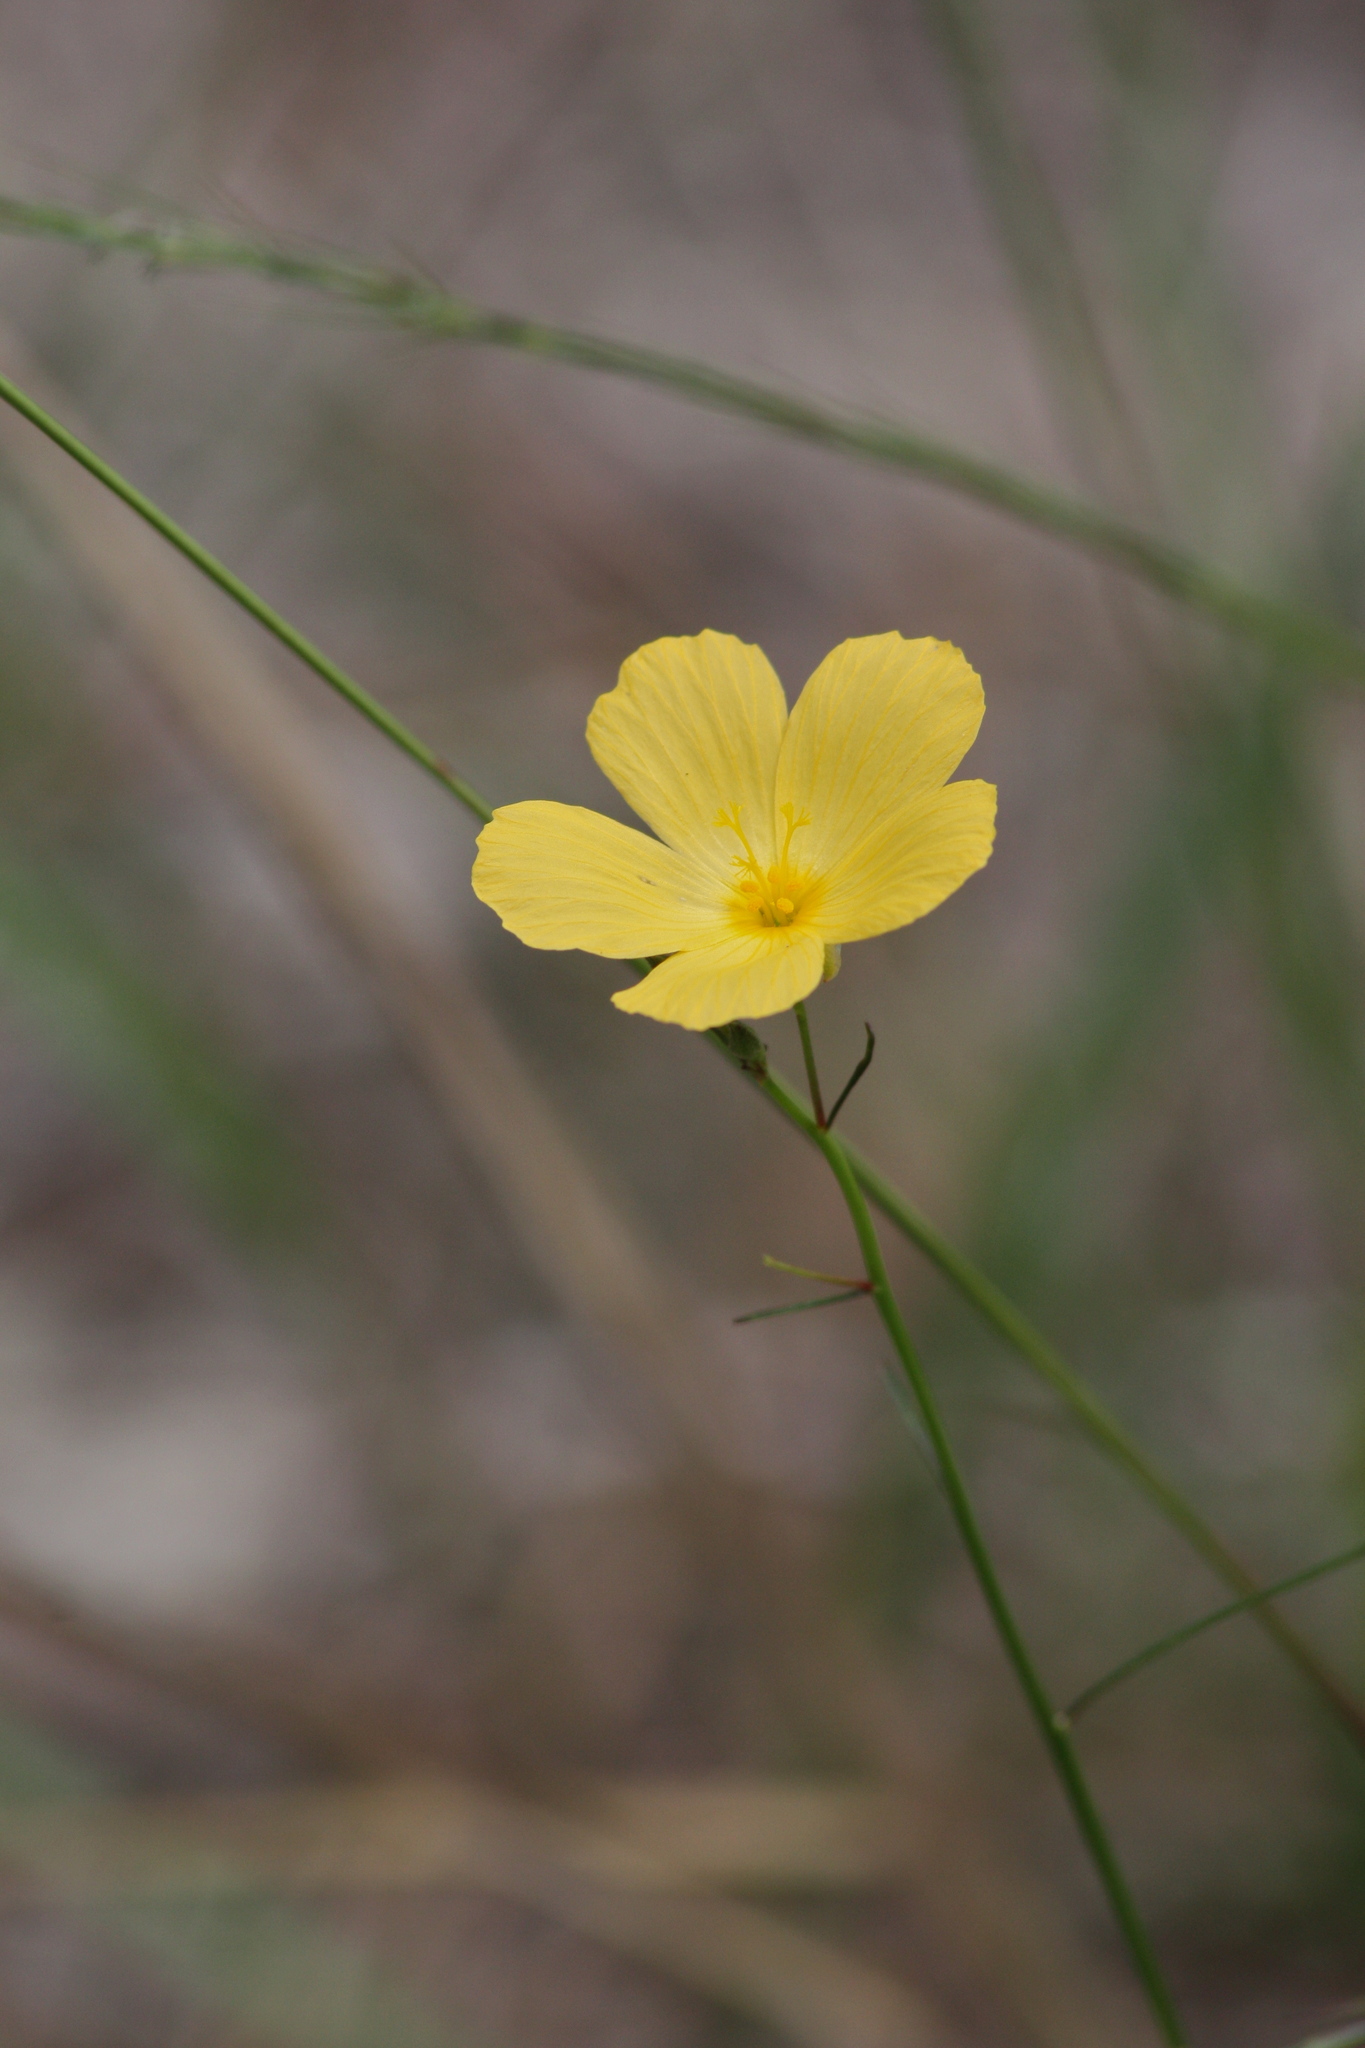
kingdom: Plantae
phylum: Tracheophyta
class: Magnoliopsida
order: Malpighiales
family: Turneraceae
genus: Piriqueta
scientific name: Piriqueta cistoides
